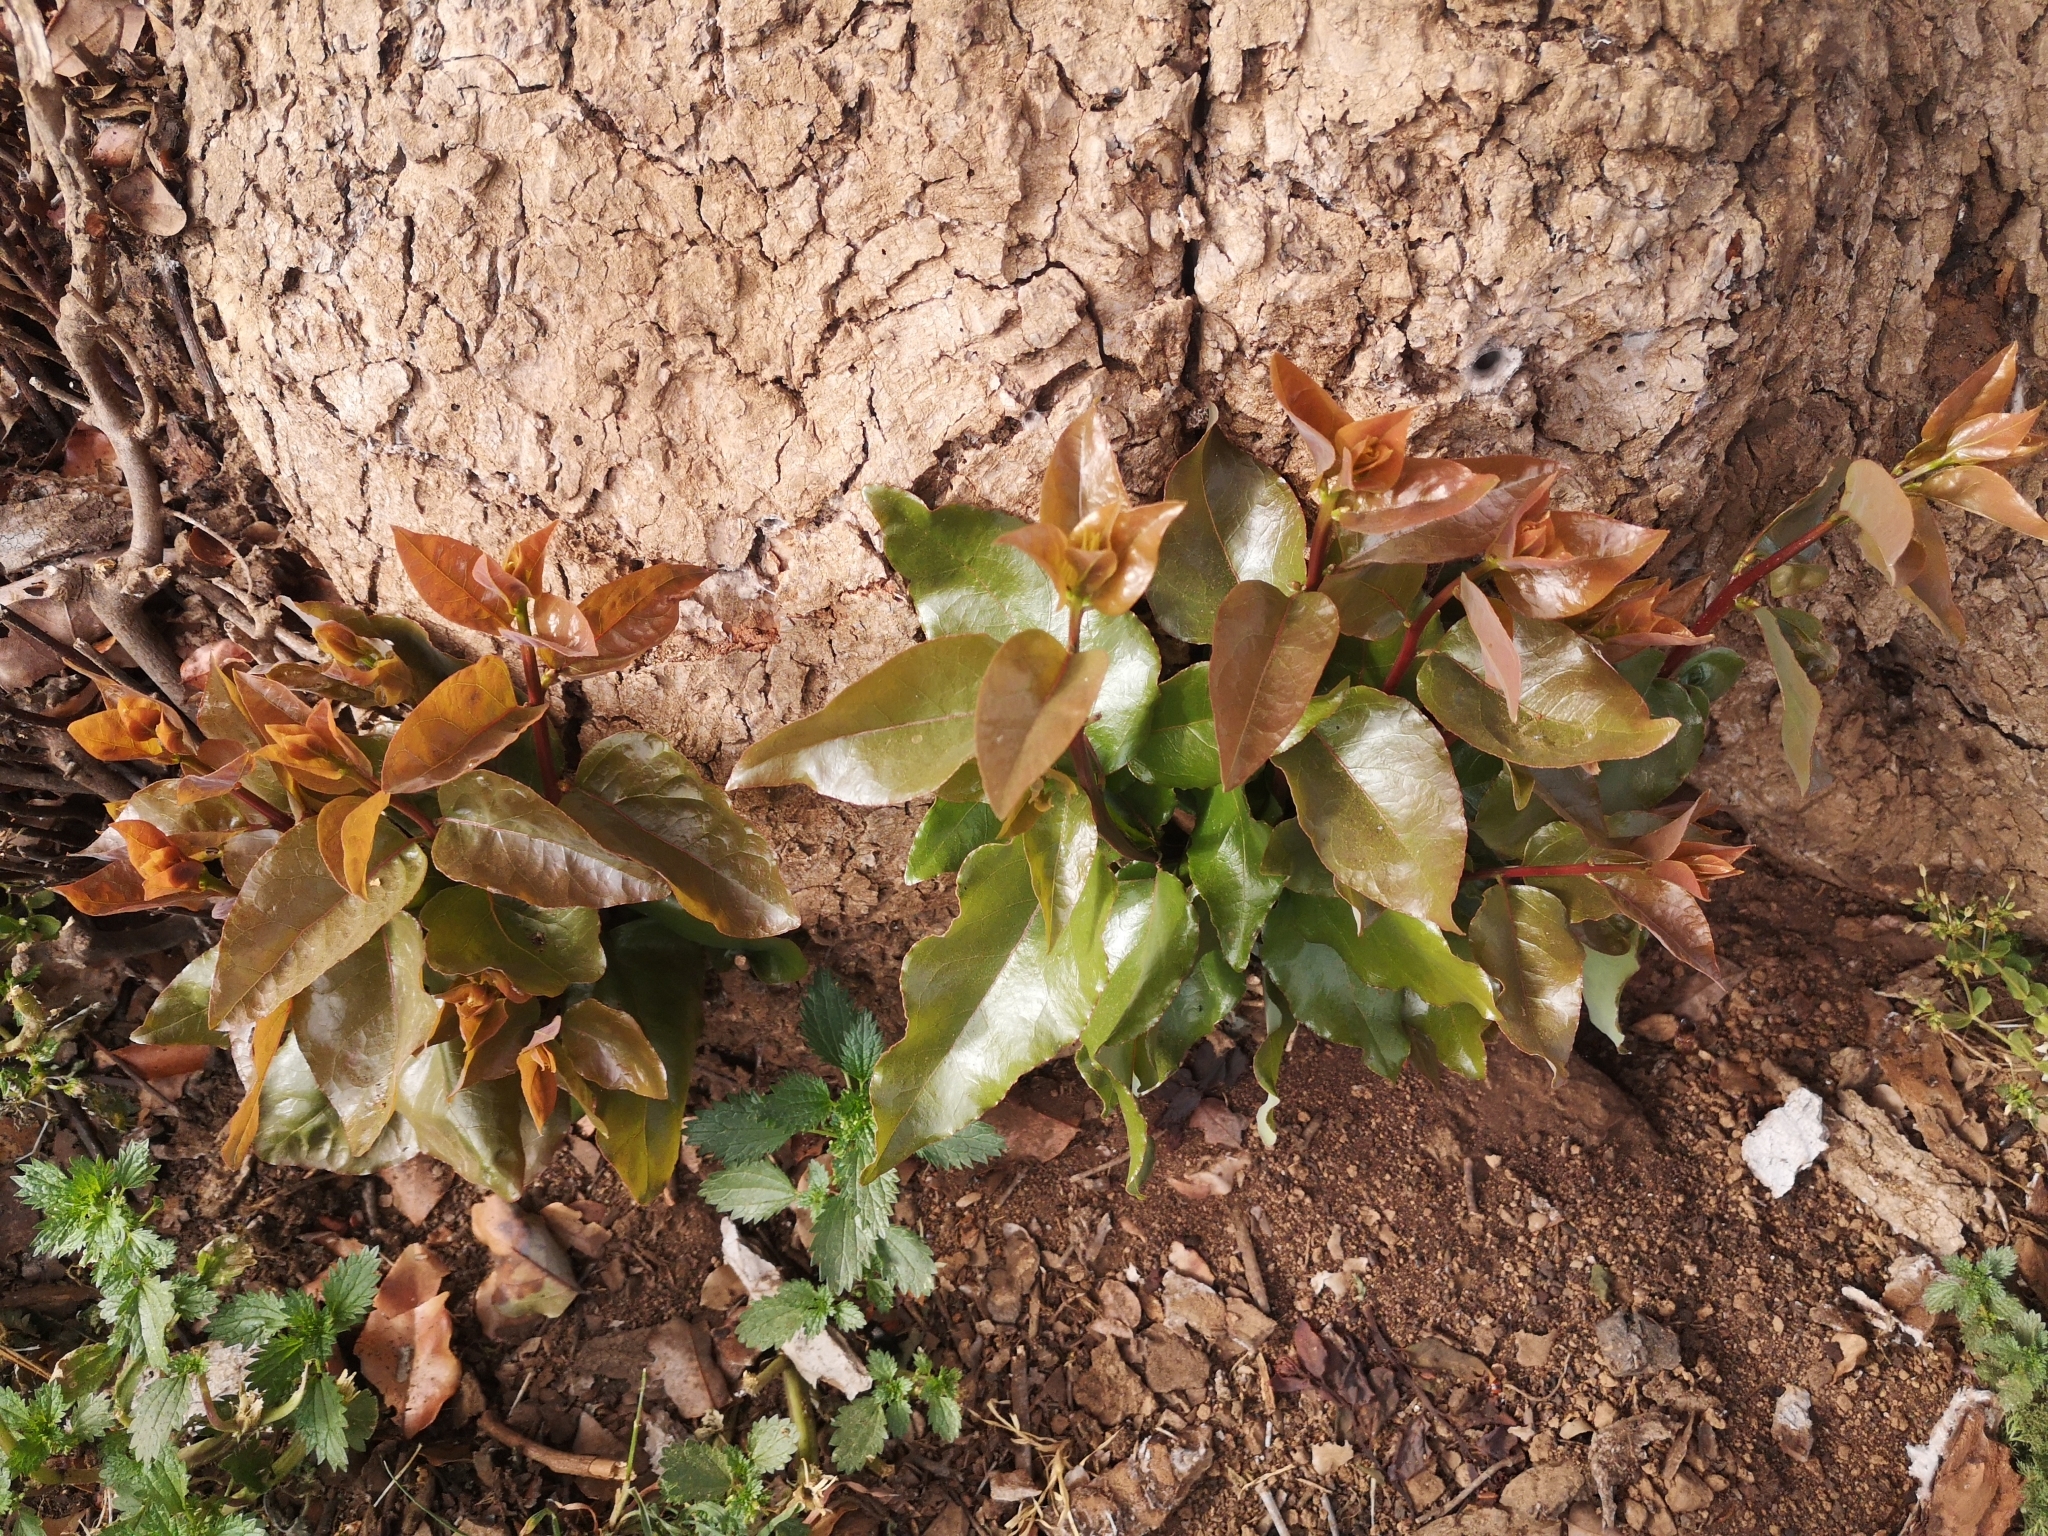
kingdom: Plantae
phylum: Tracheophyta
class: Magnoliopsida
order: Laurales
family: Lauraceae
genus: Cryptocarya
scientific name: Cryptocarya alba
